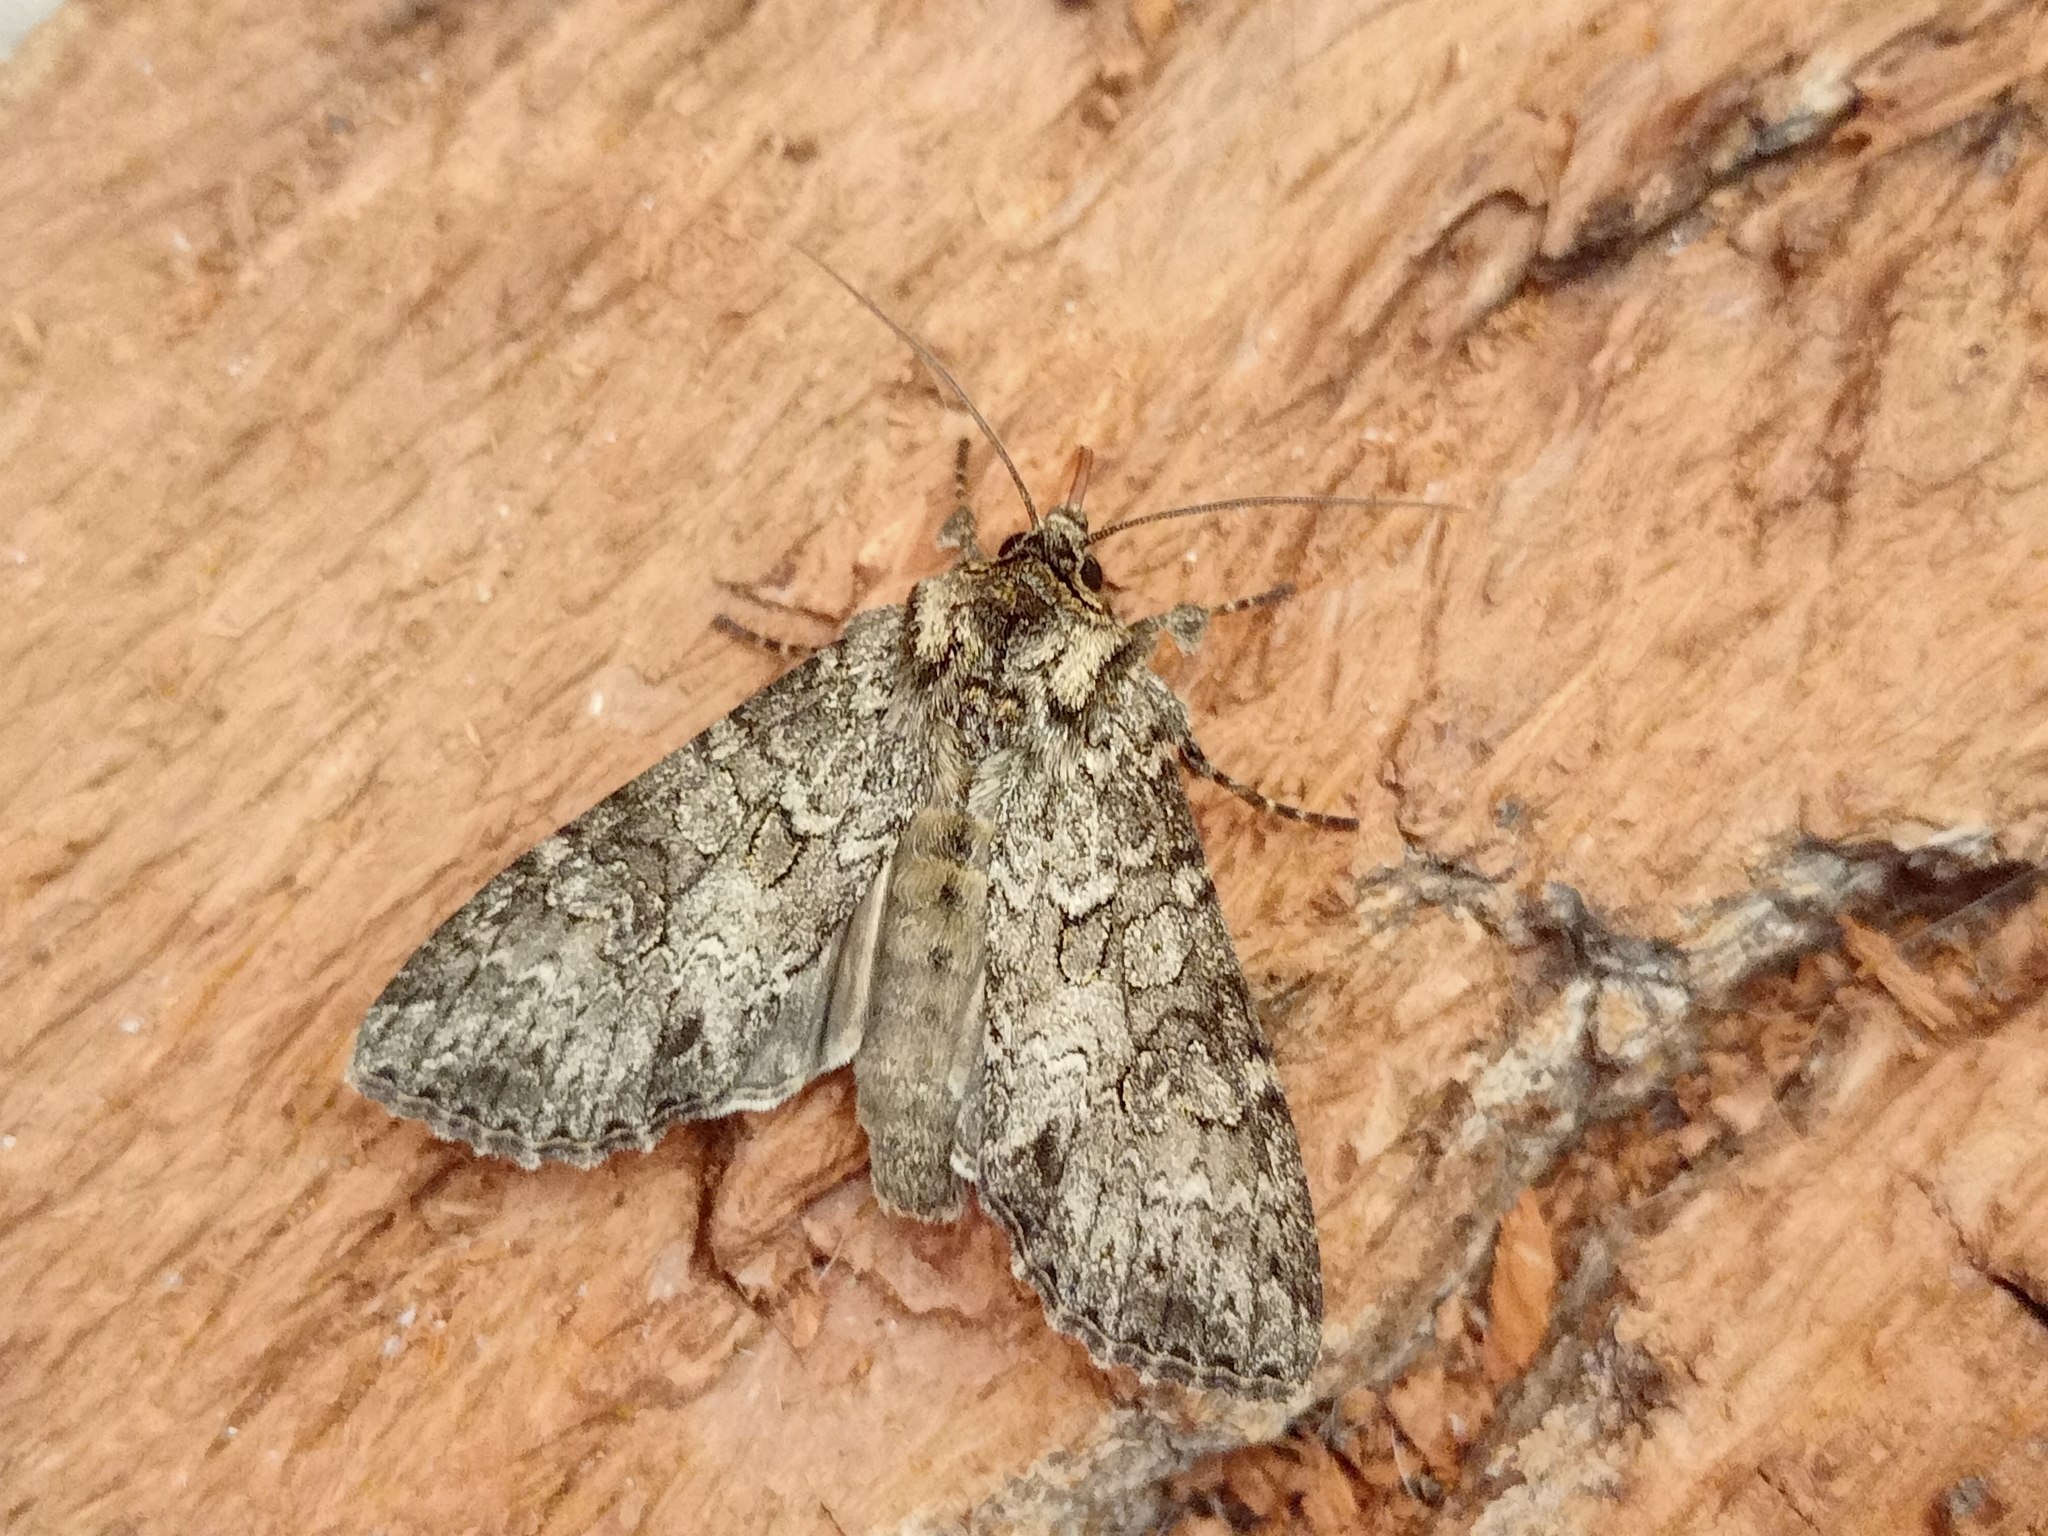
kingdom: Animalia
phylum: Arthropoda
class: Insecta
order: Lepidoptera
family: Noctuidae
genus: Polia
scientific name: Polia nebulosa
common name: Grey arches
